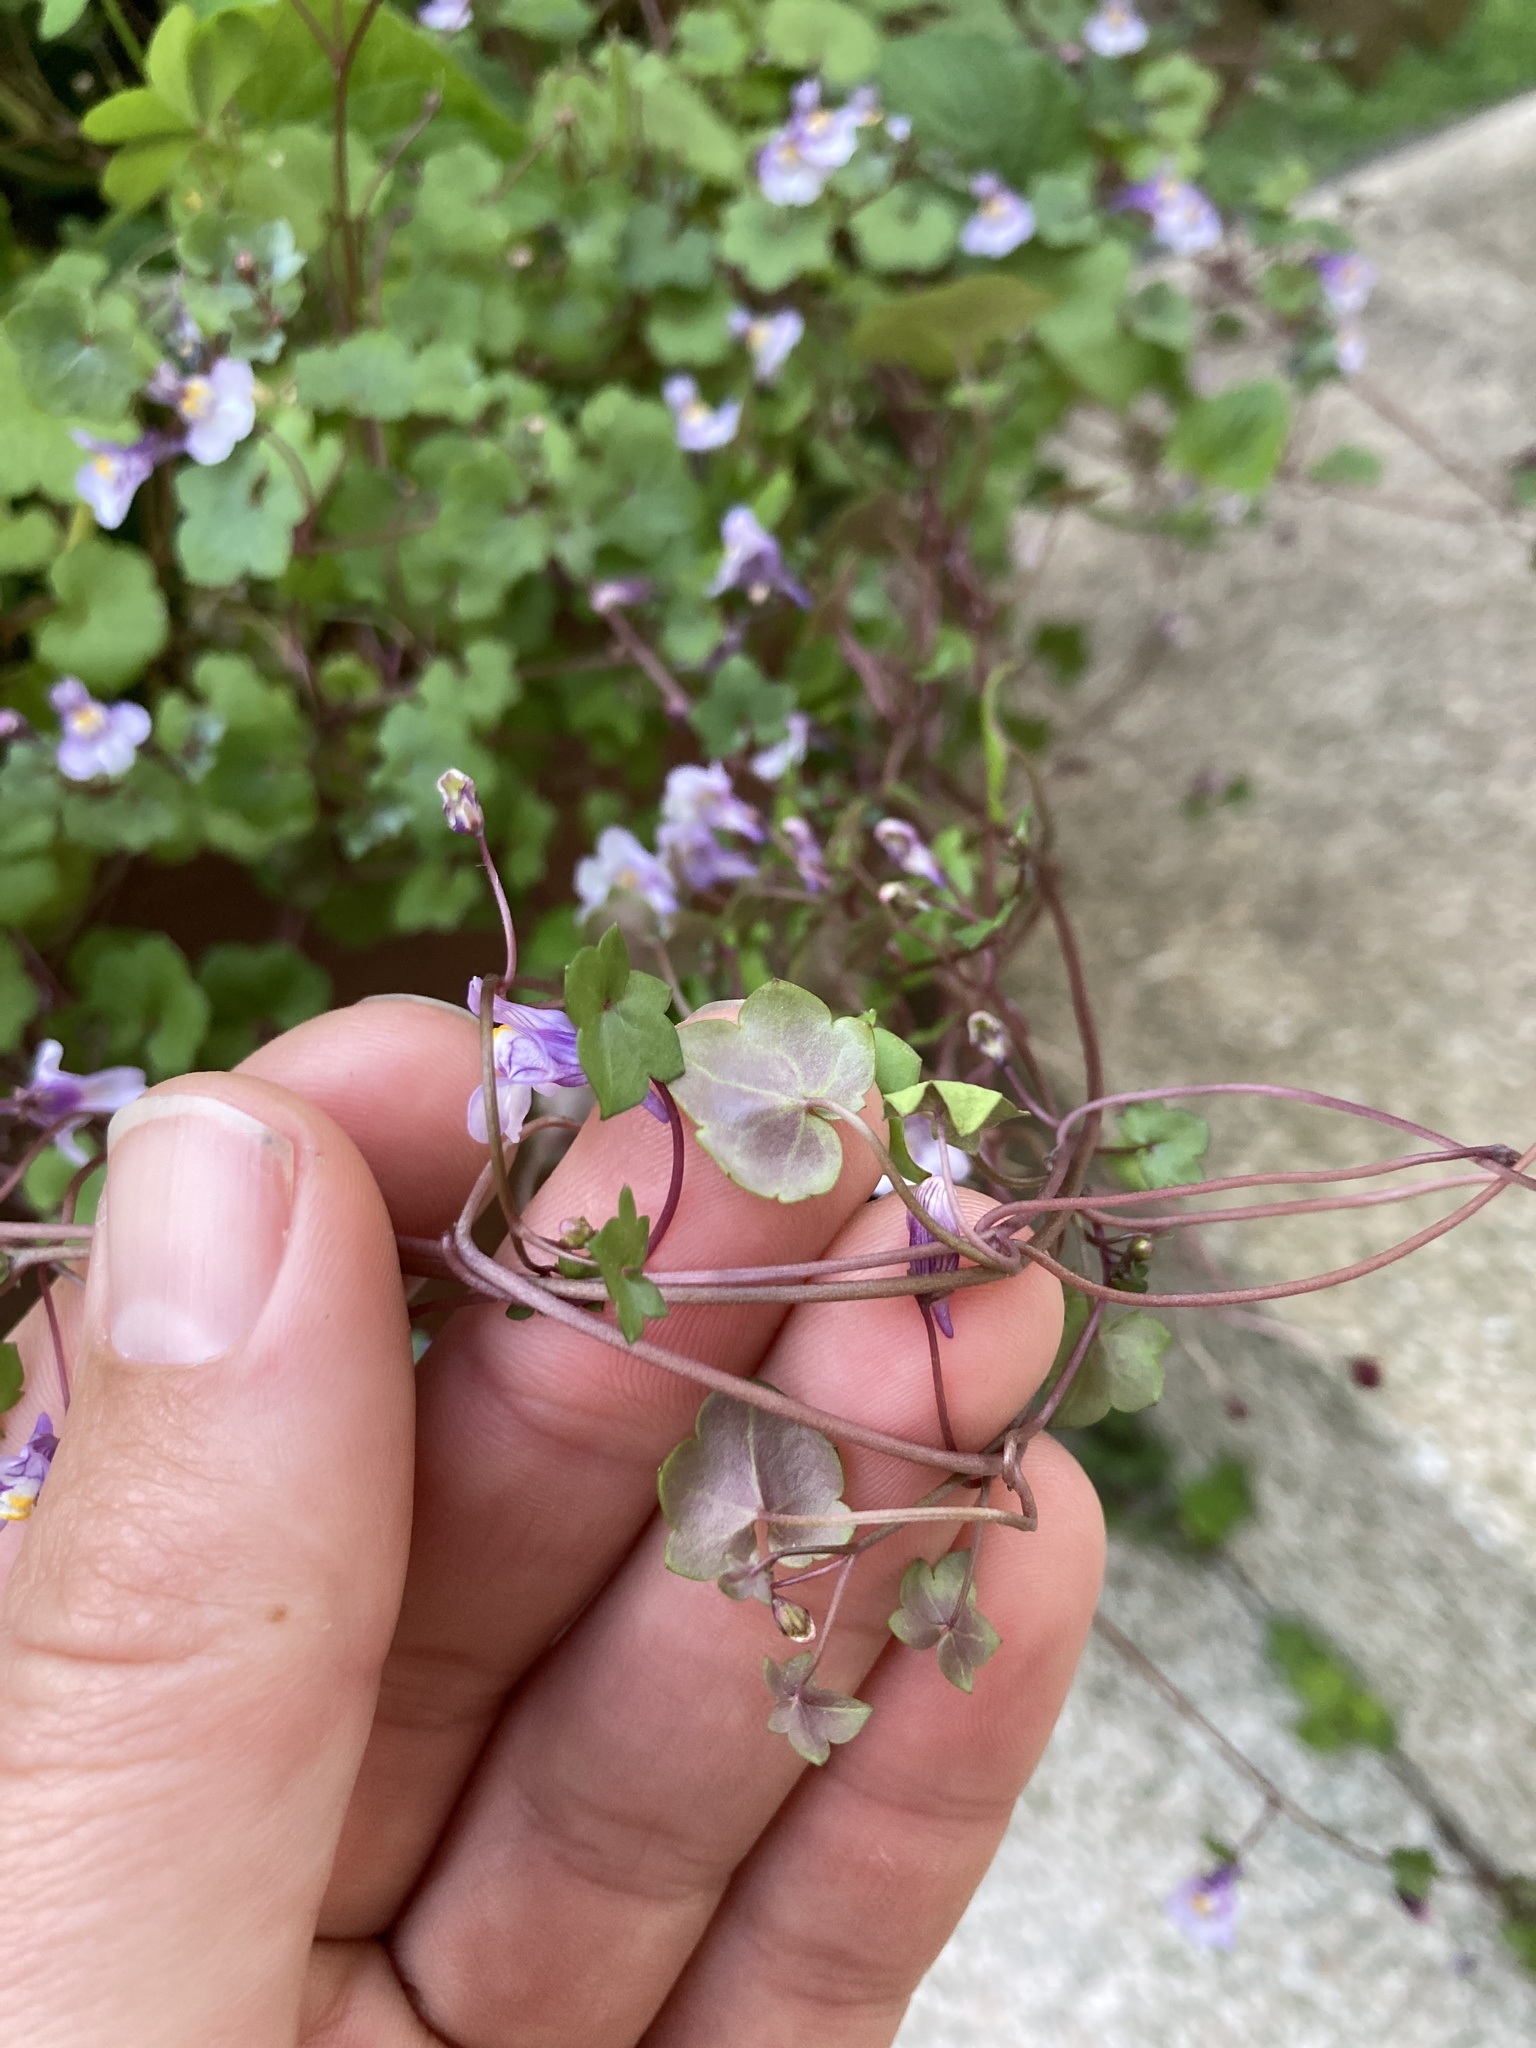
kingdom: Plantae
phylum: Tracheophyta
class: Magnoliopsida
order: Lamiales
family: Plantaginaceae
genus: Cymbalaria
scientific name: Cymbalaria muralis
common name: Ivy-leaved toadflax
